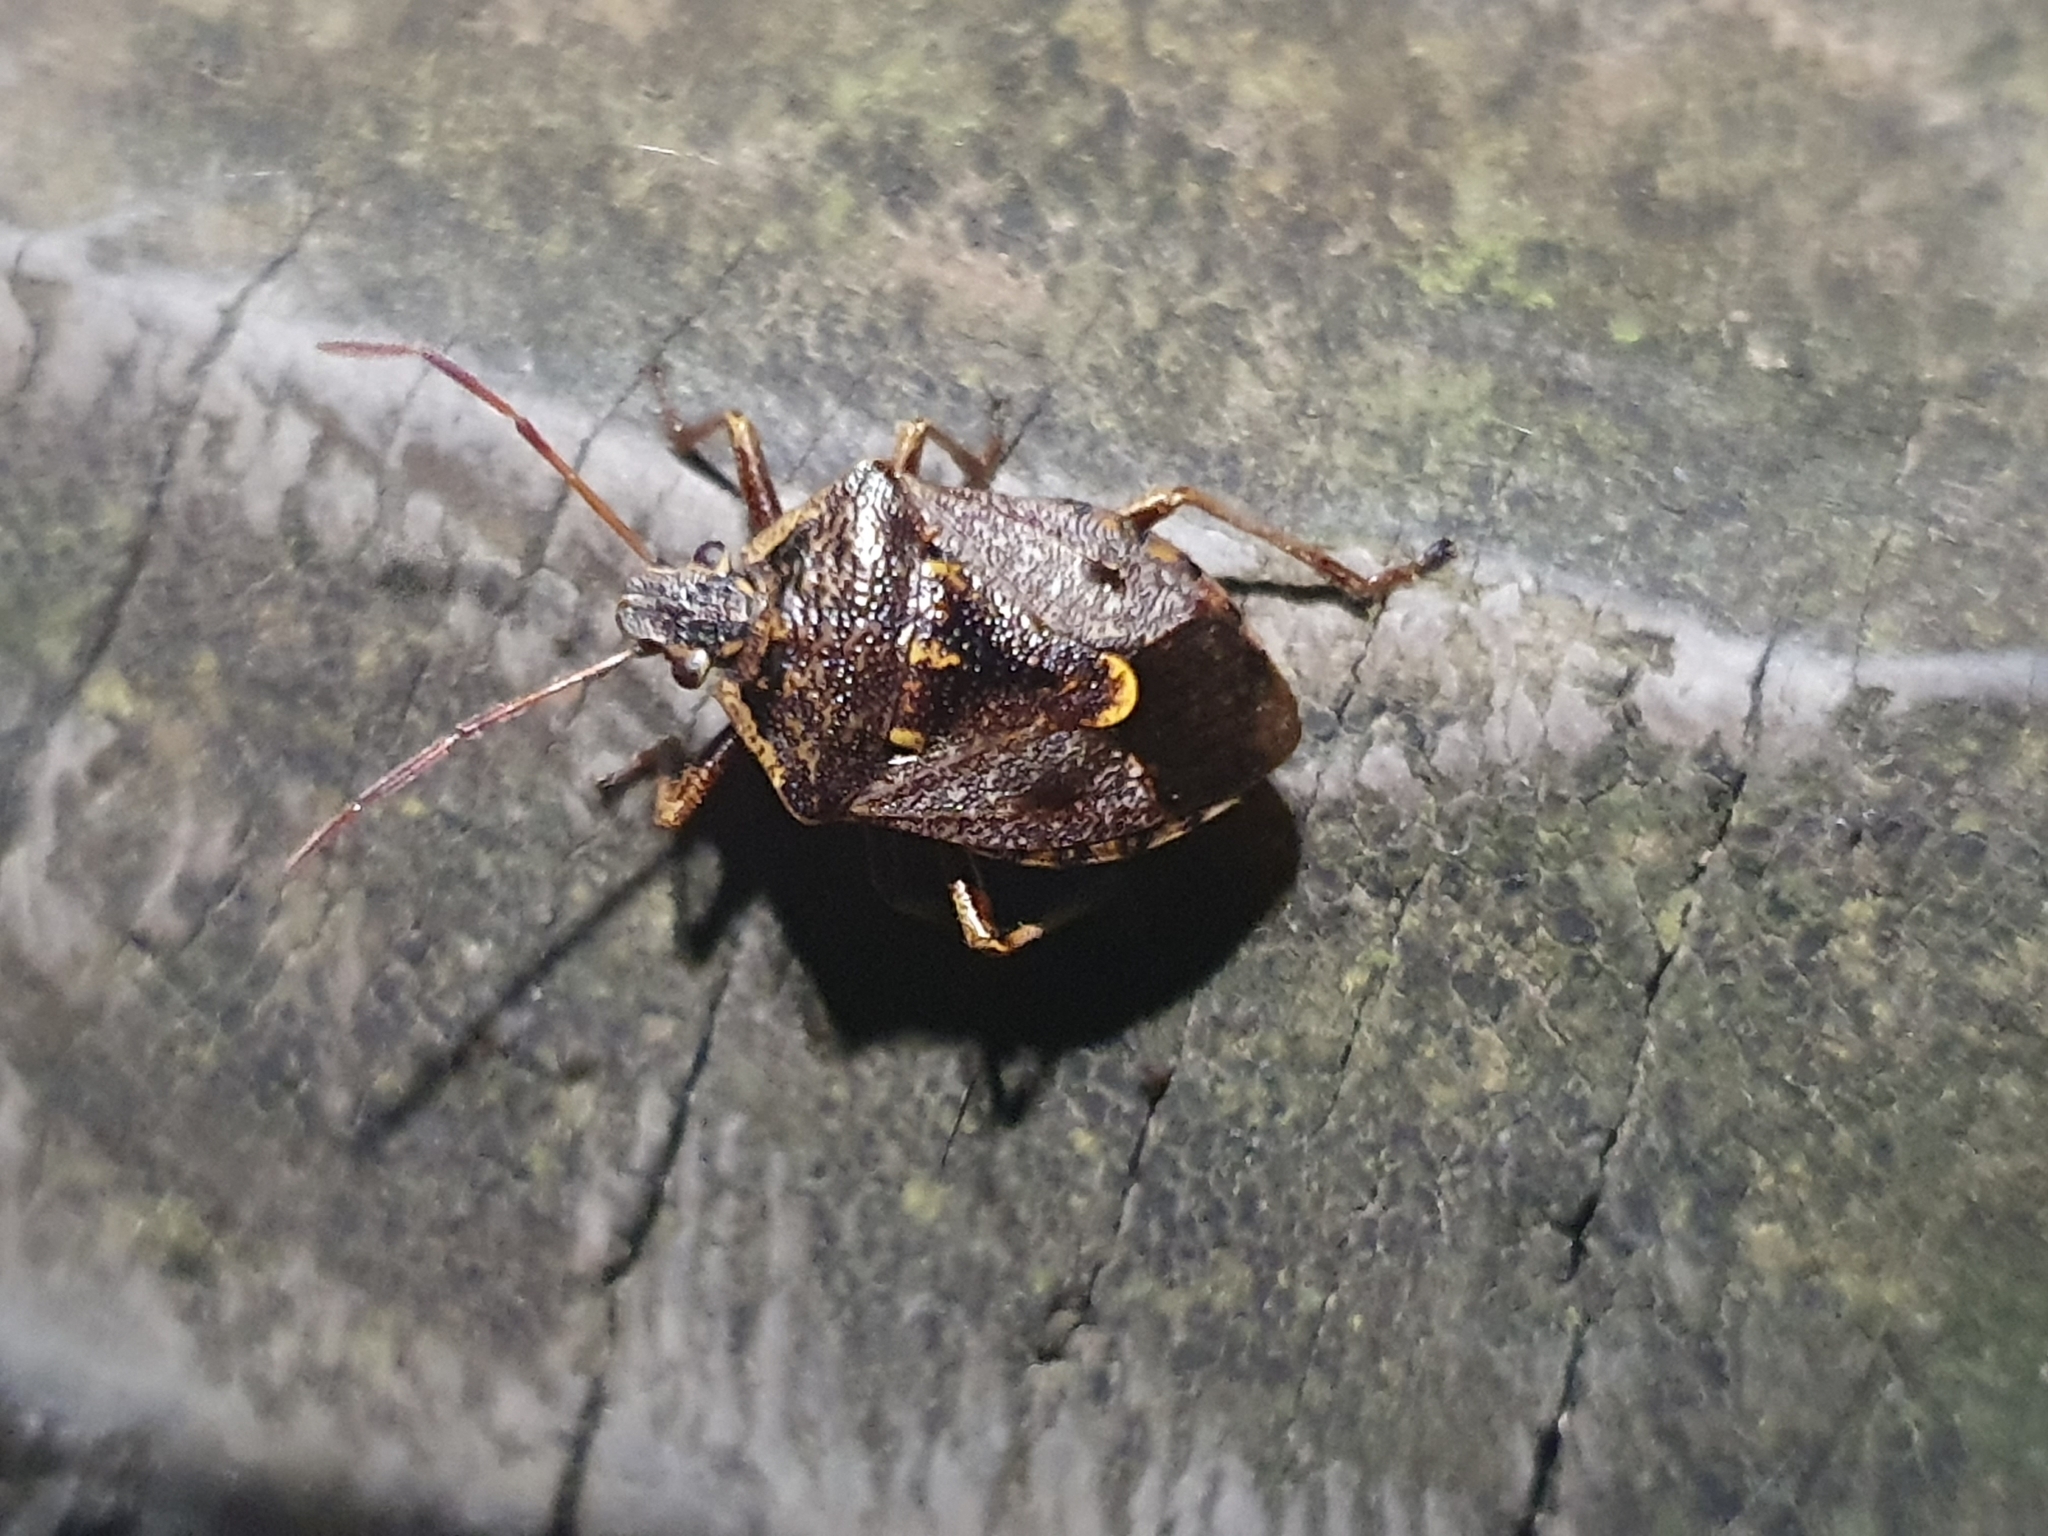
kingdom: Animalia
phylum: Arthropoda
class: Insecta
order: Hemiptera
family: Pentatomidae
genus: Cermatulus
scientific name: Cermatulus nasalis
